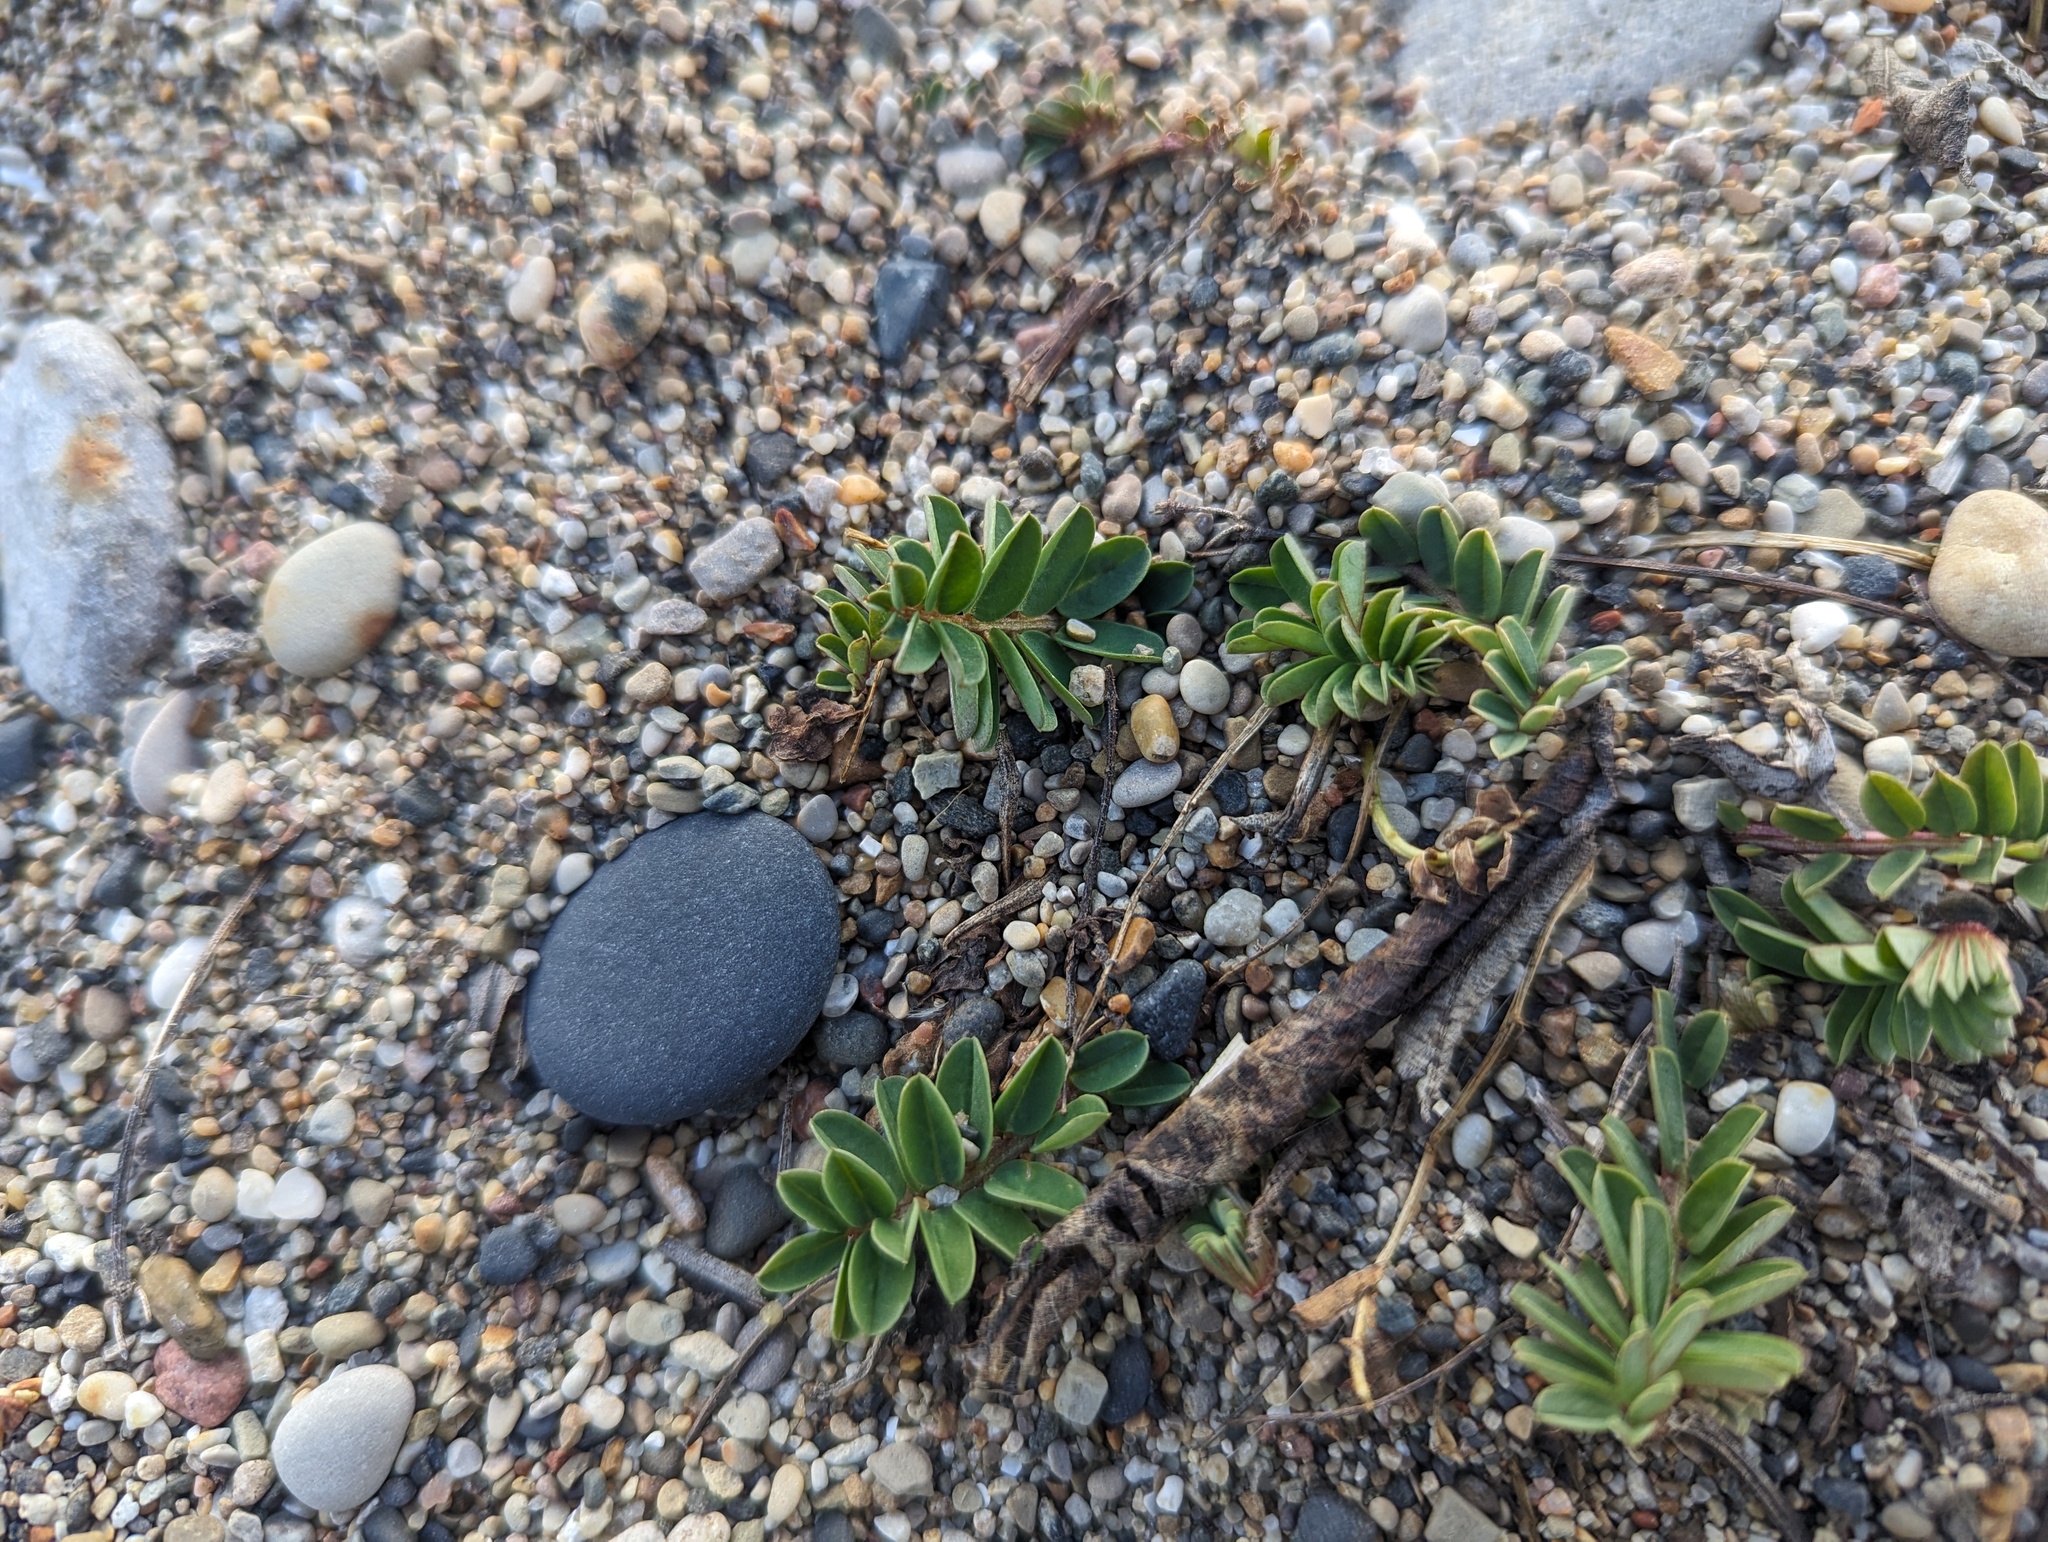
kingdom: Plantae
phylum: Tracheophyta
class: Magnoliopsida
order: Fabales
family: Fabaceae
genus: Coronilla
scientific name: Coronilla varia
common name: Crownvetch
